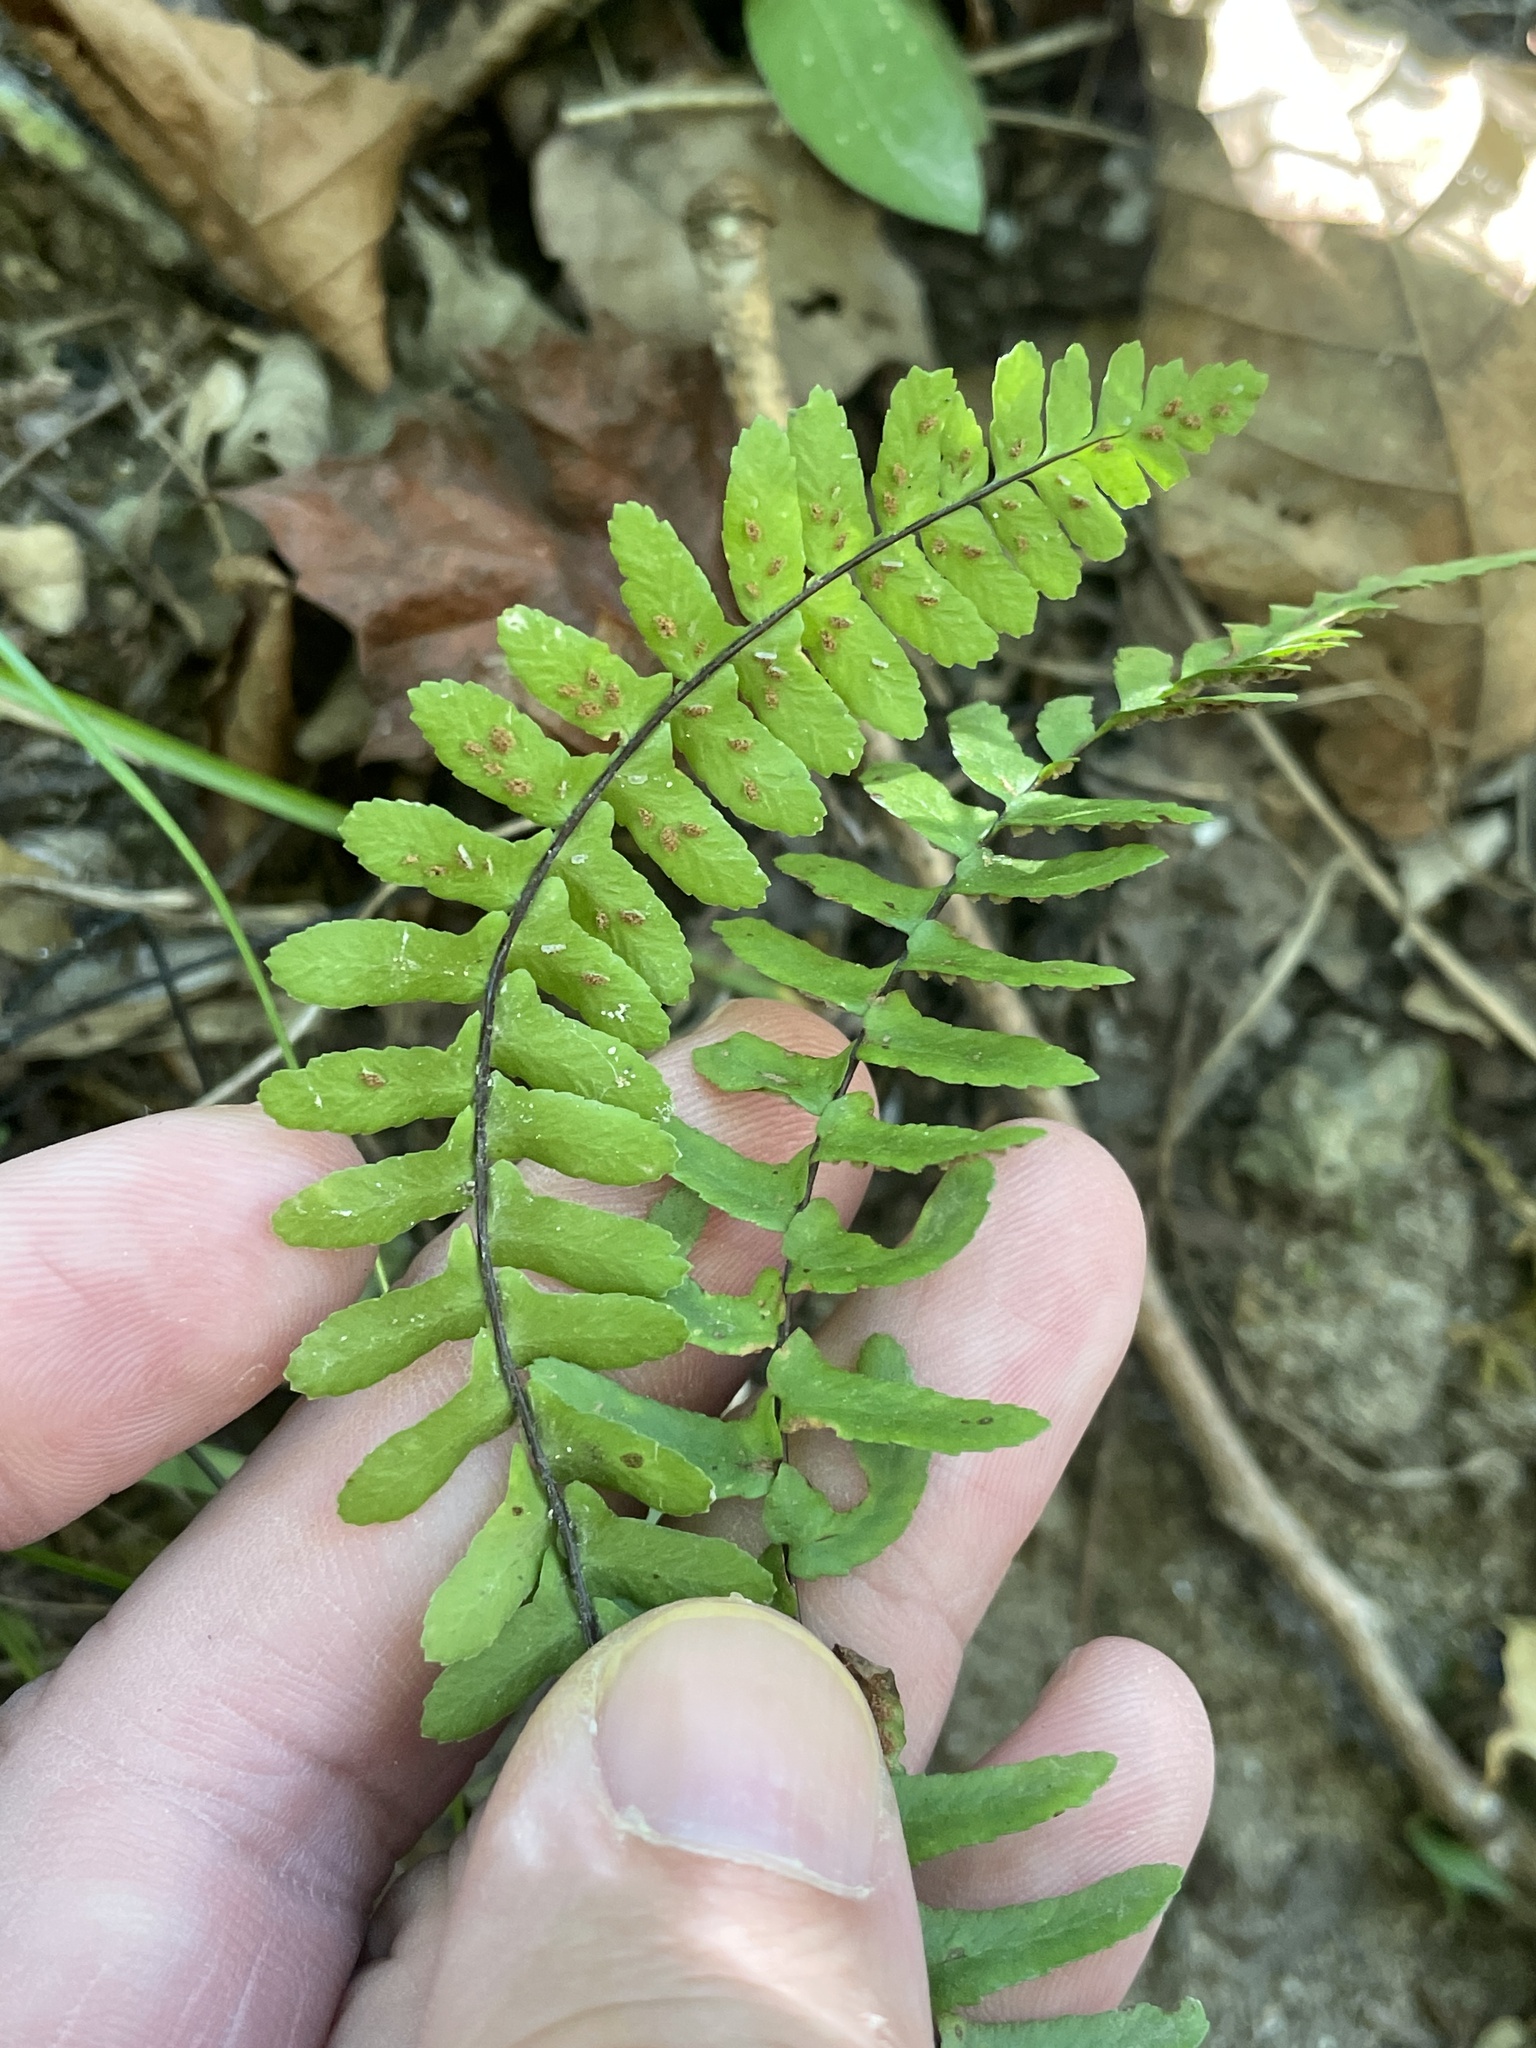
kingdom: Plantae
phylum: Tracheophyta
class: Polypodiopsida
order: Polypodiales
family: Aspleniaceae
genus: Asplenium
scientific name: Asplenium platyneuron
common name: Ebony spleenwort
